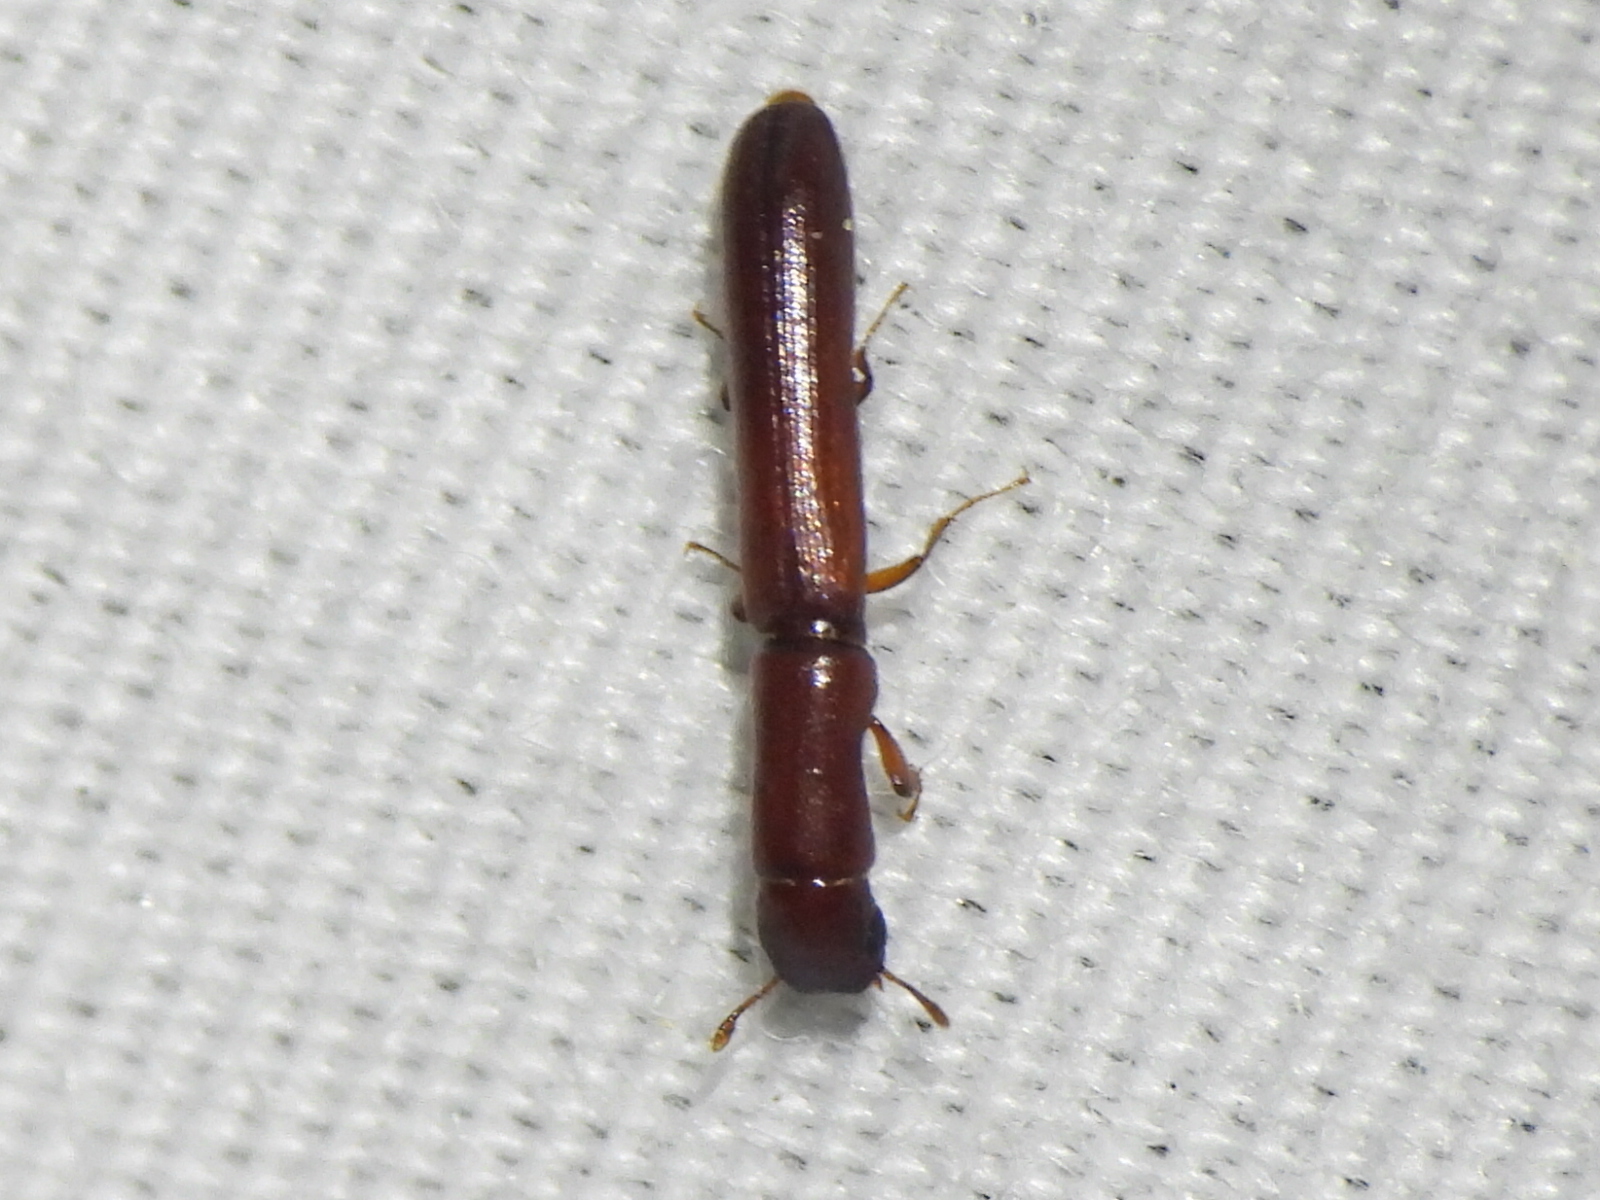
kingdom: Animalia
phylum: Arthropoda
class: Insecta
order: Coleoptera
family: Zopheridae
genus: Nematidium
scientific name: Nematidium filiforme
